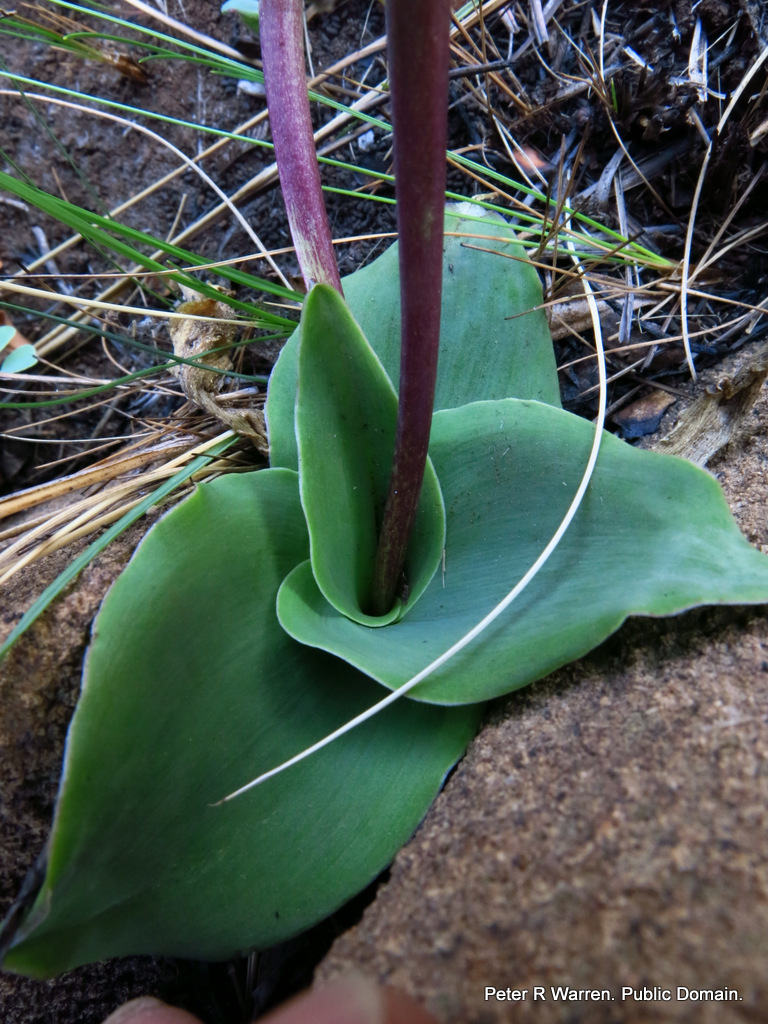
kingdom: Plantae
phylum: Tracheophyta
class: Liliopsida
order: Asparagales
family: Asparagaceae
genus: Ledebouria
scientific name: Ledebouria ovatifolia
